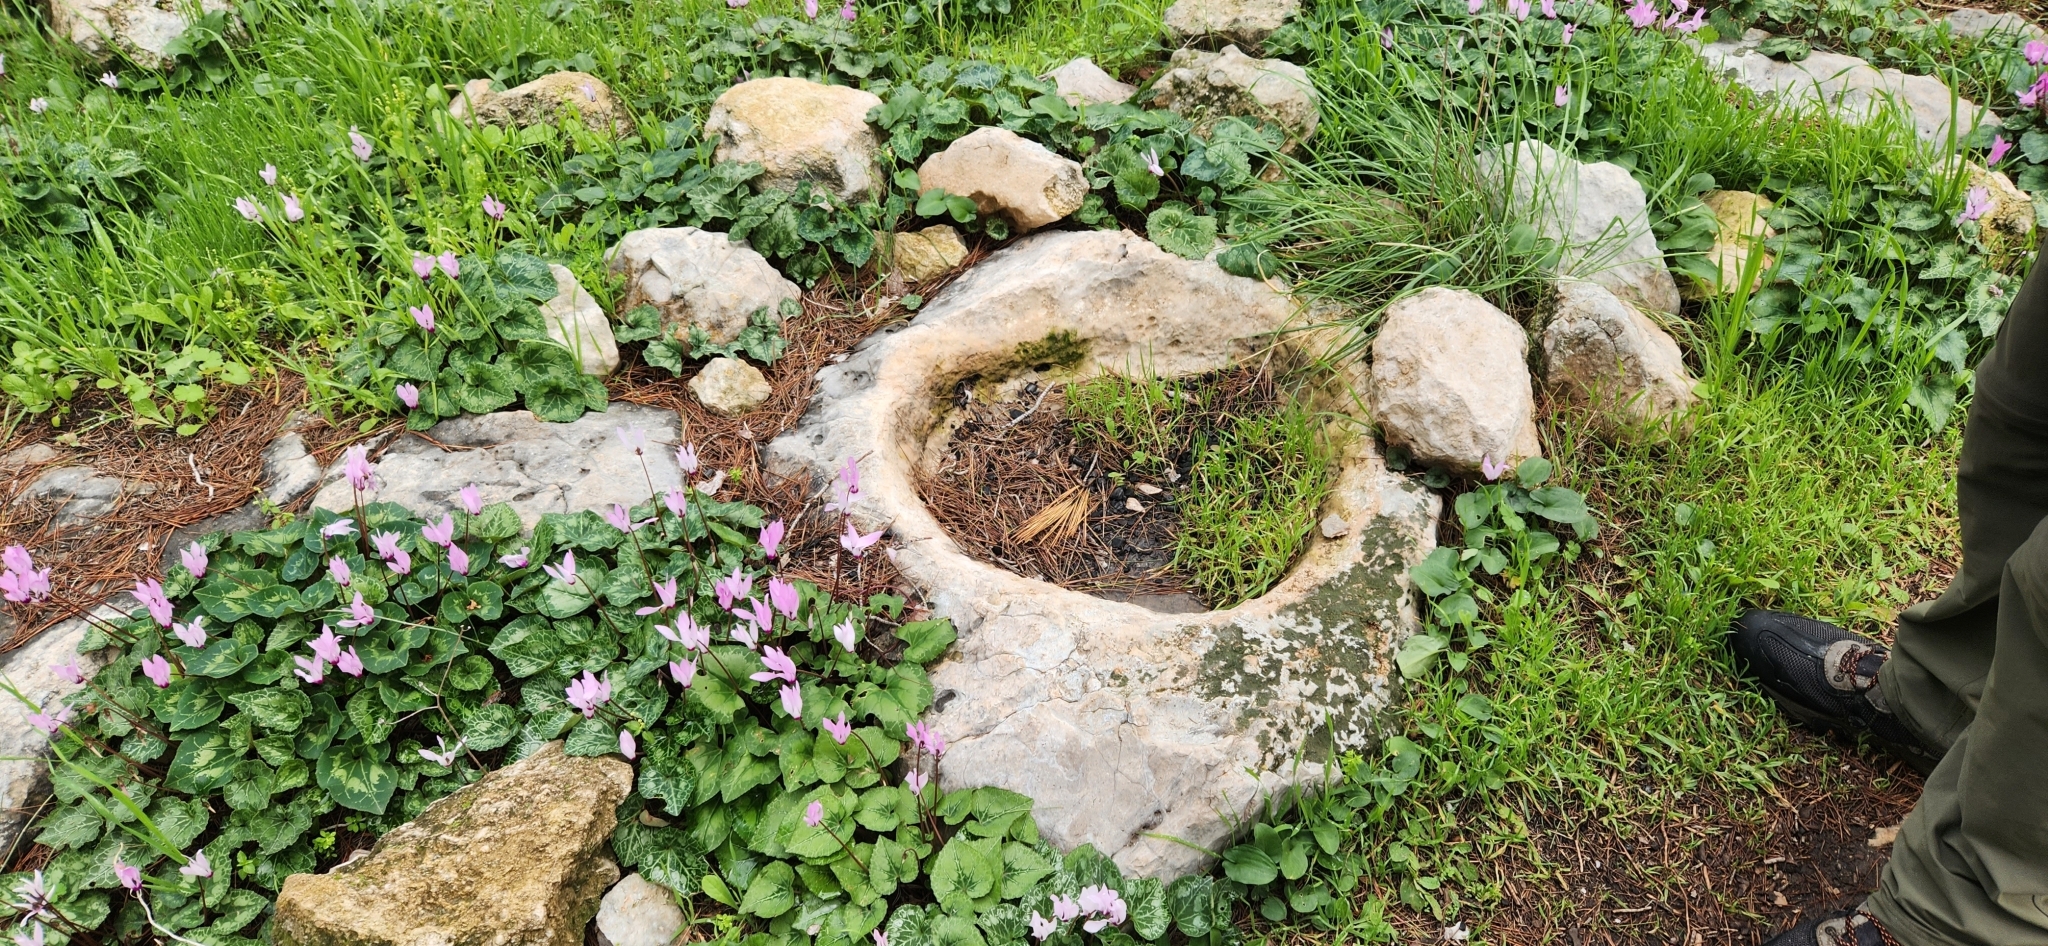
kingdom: Plantae
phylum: Tracheophyta
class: Magnoliopsida
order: Ericales
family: Primulaceae
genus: Cyclamen
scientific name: Cyclamen persicum
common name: Florist's cyclamen
